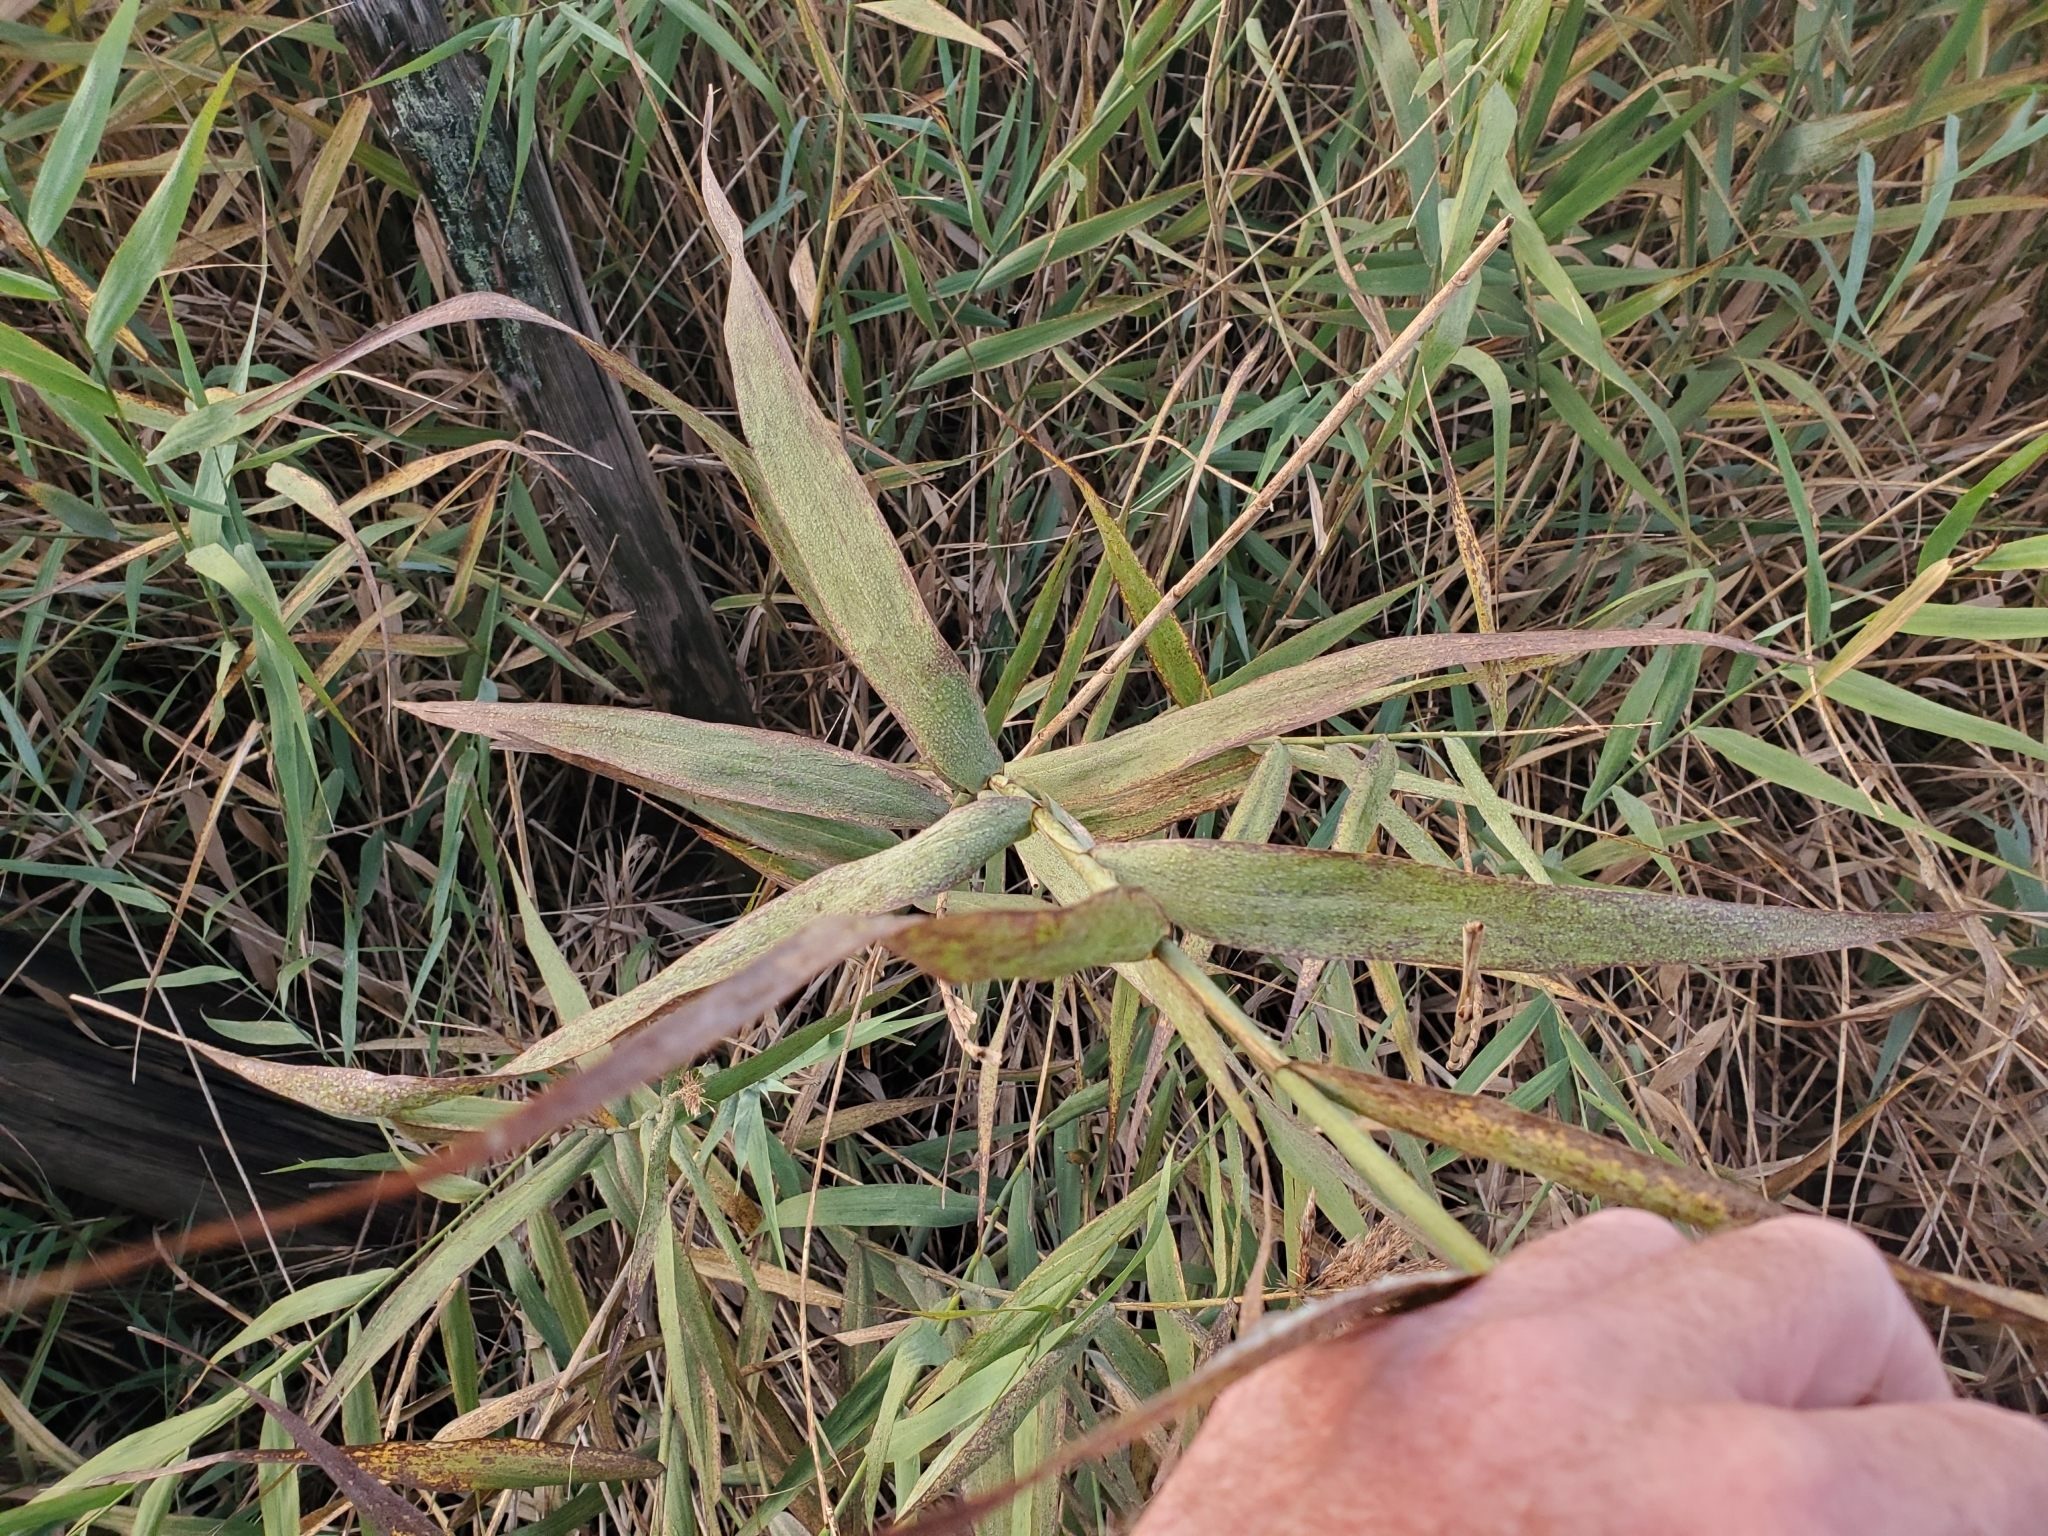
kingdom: Plantae
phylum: Tracheophyta
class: Liliopsida
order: Poales
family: Poaceae
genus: Phragmites
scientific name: Phragmites australis
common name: Common reed
